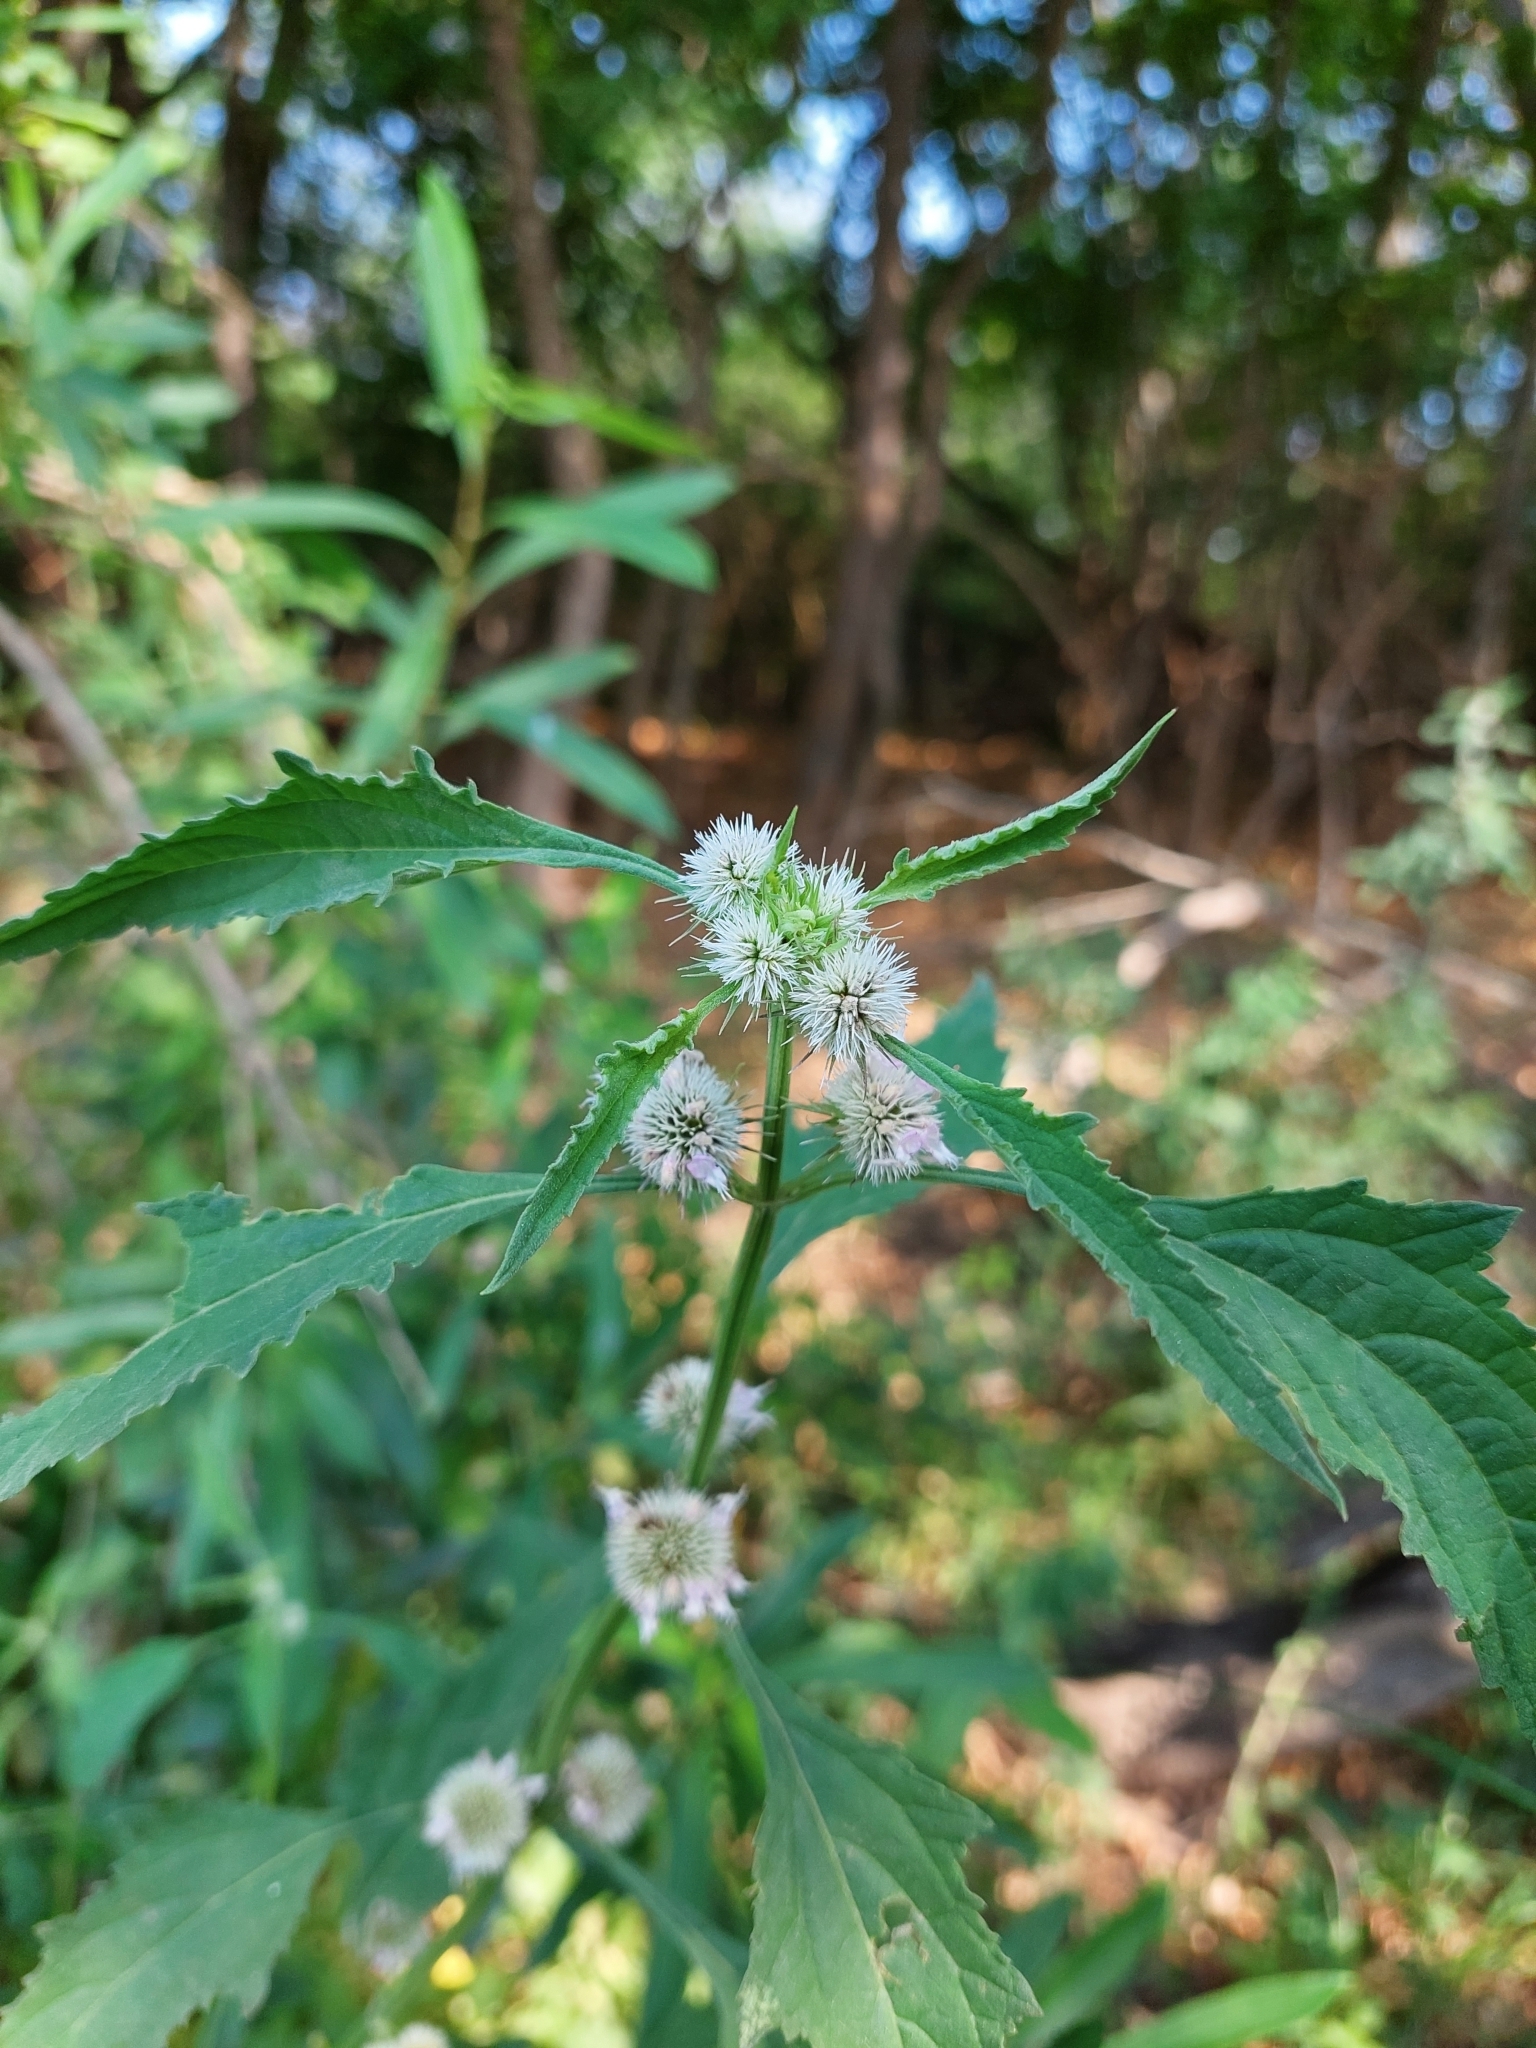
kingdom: Plantae
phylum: Tracheophyta
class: Magnoliopsida
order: Lamiales
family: Lamiaceae
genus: Hyptis
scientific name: Hyptis lappacea
